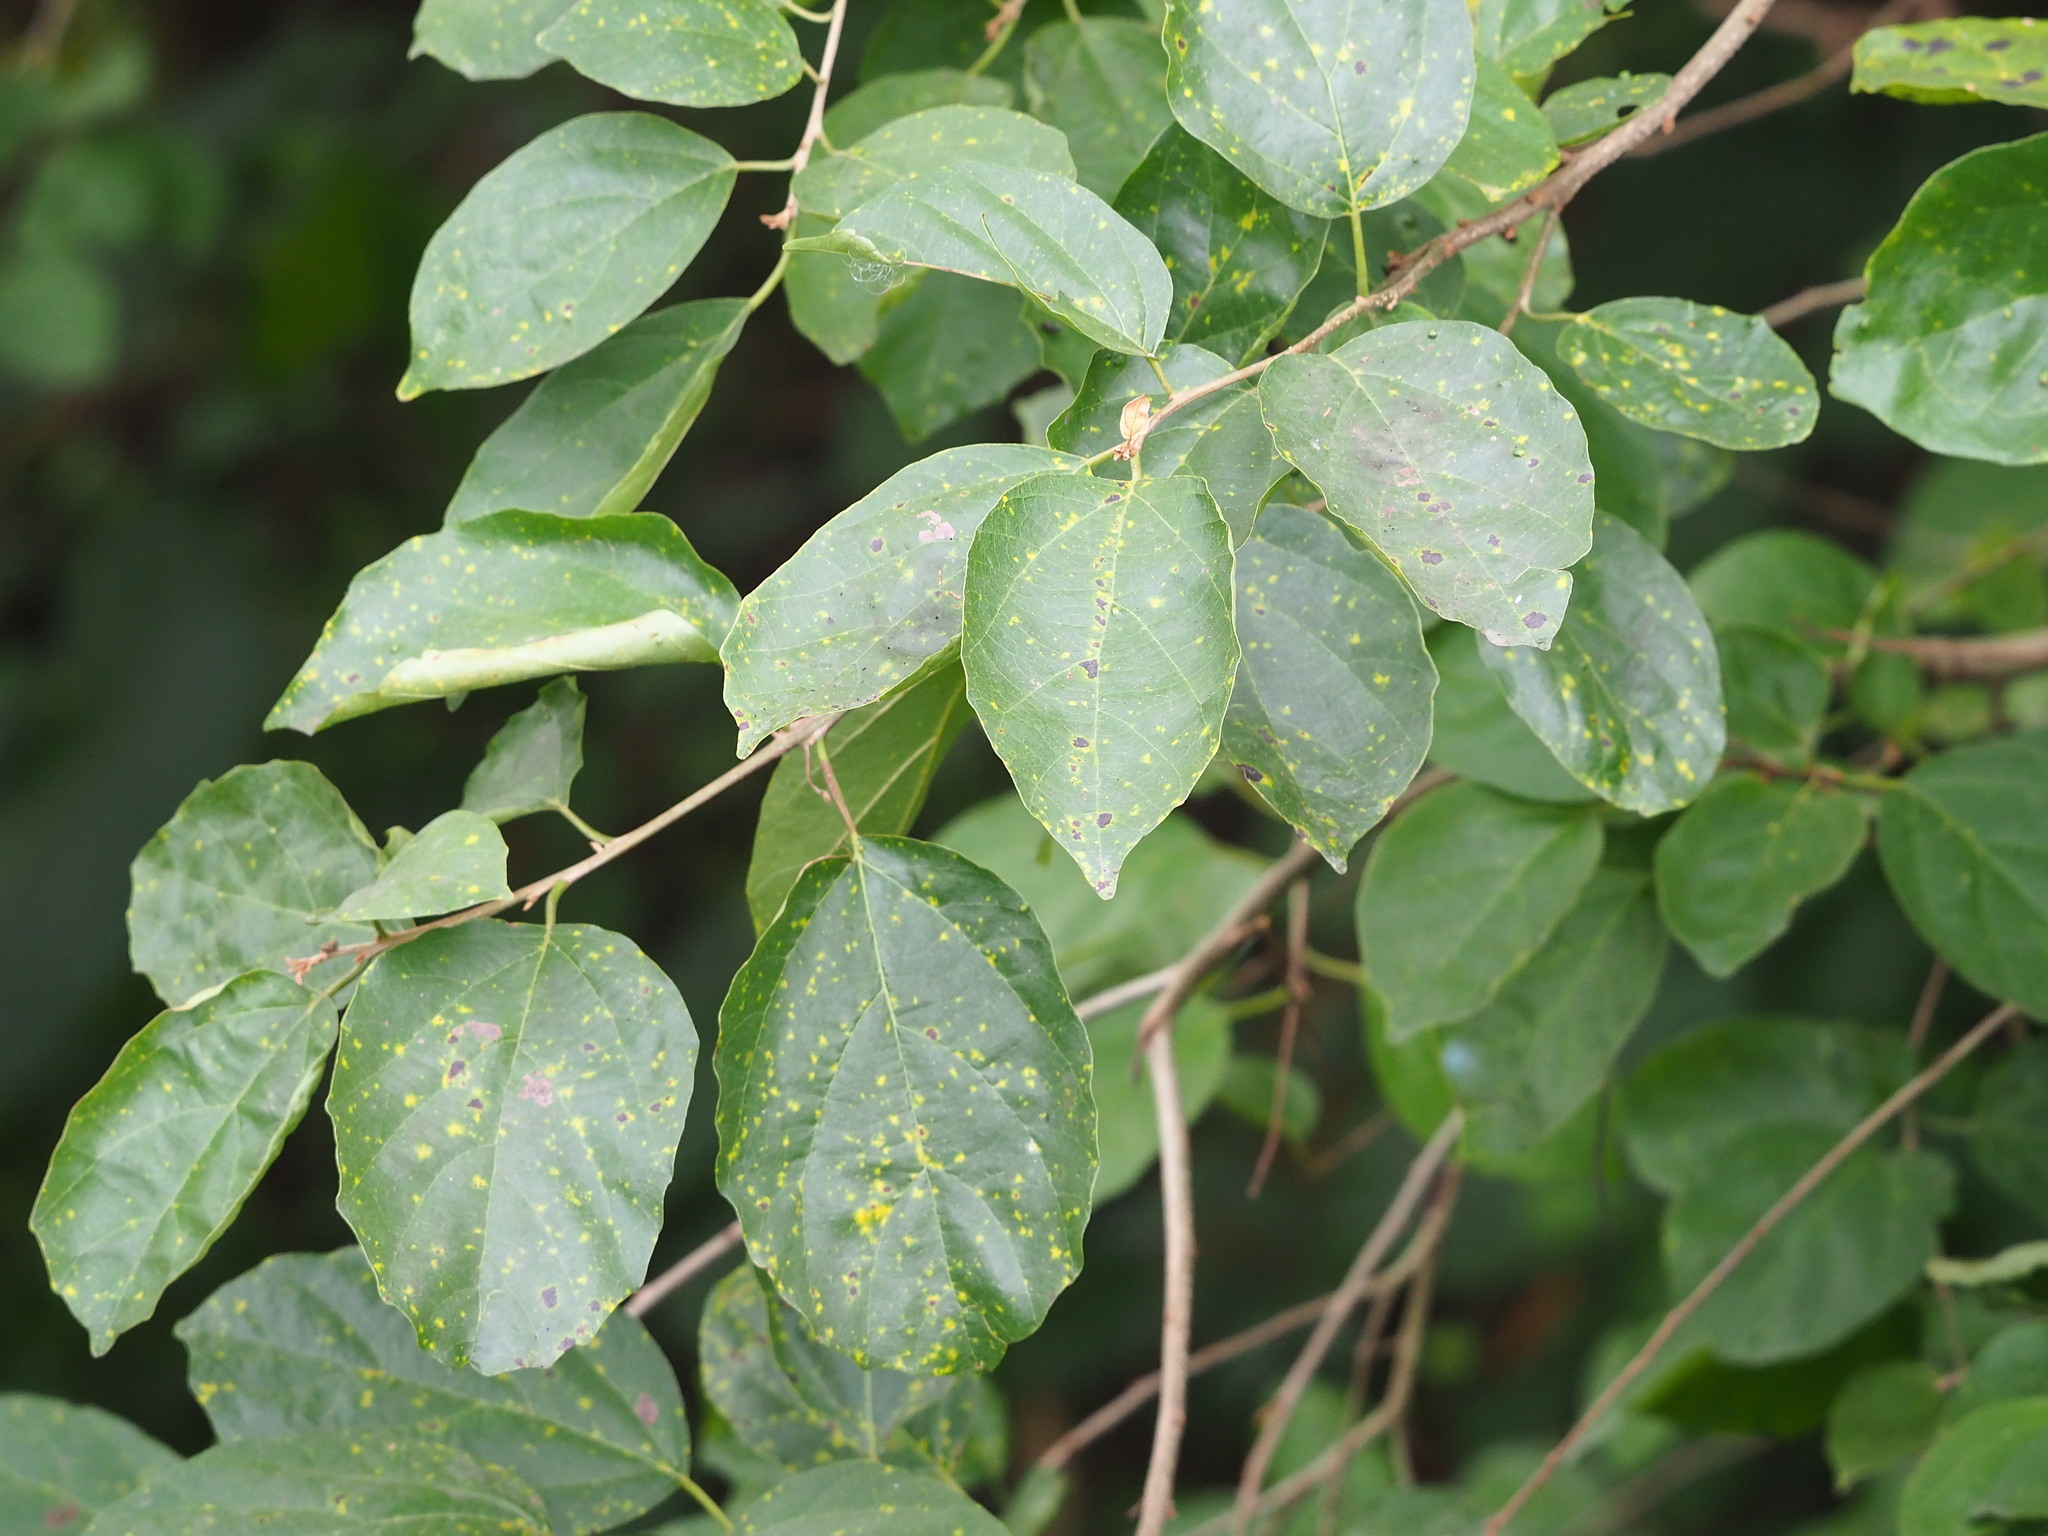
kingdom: Plantae
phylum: Tracheophyta
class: Magnoliopsida
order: Boraginales
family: Cordiaceae
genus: Cordia
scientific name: Cordia dichotoma
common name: Fragrant manjack
